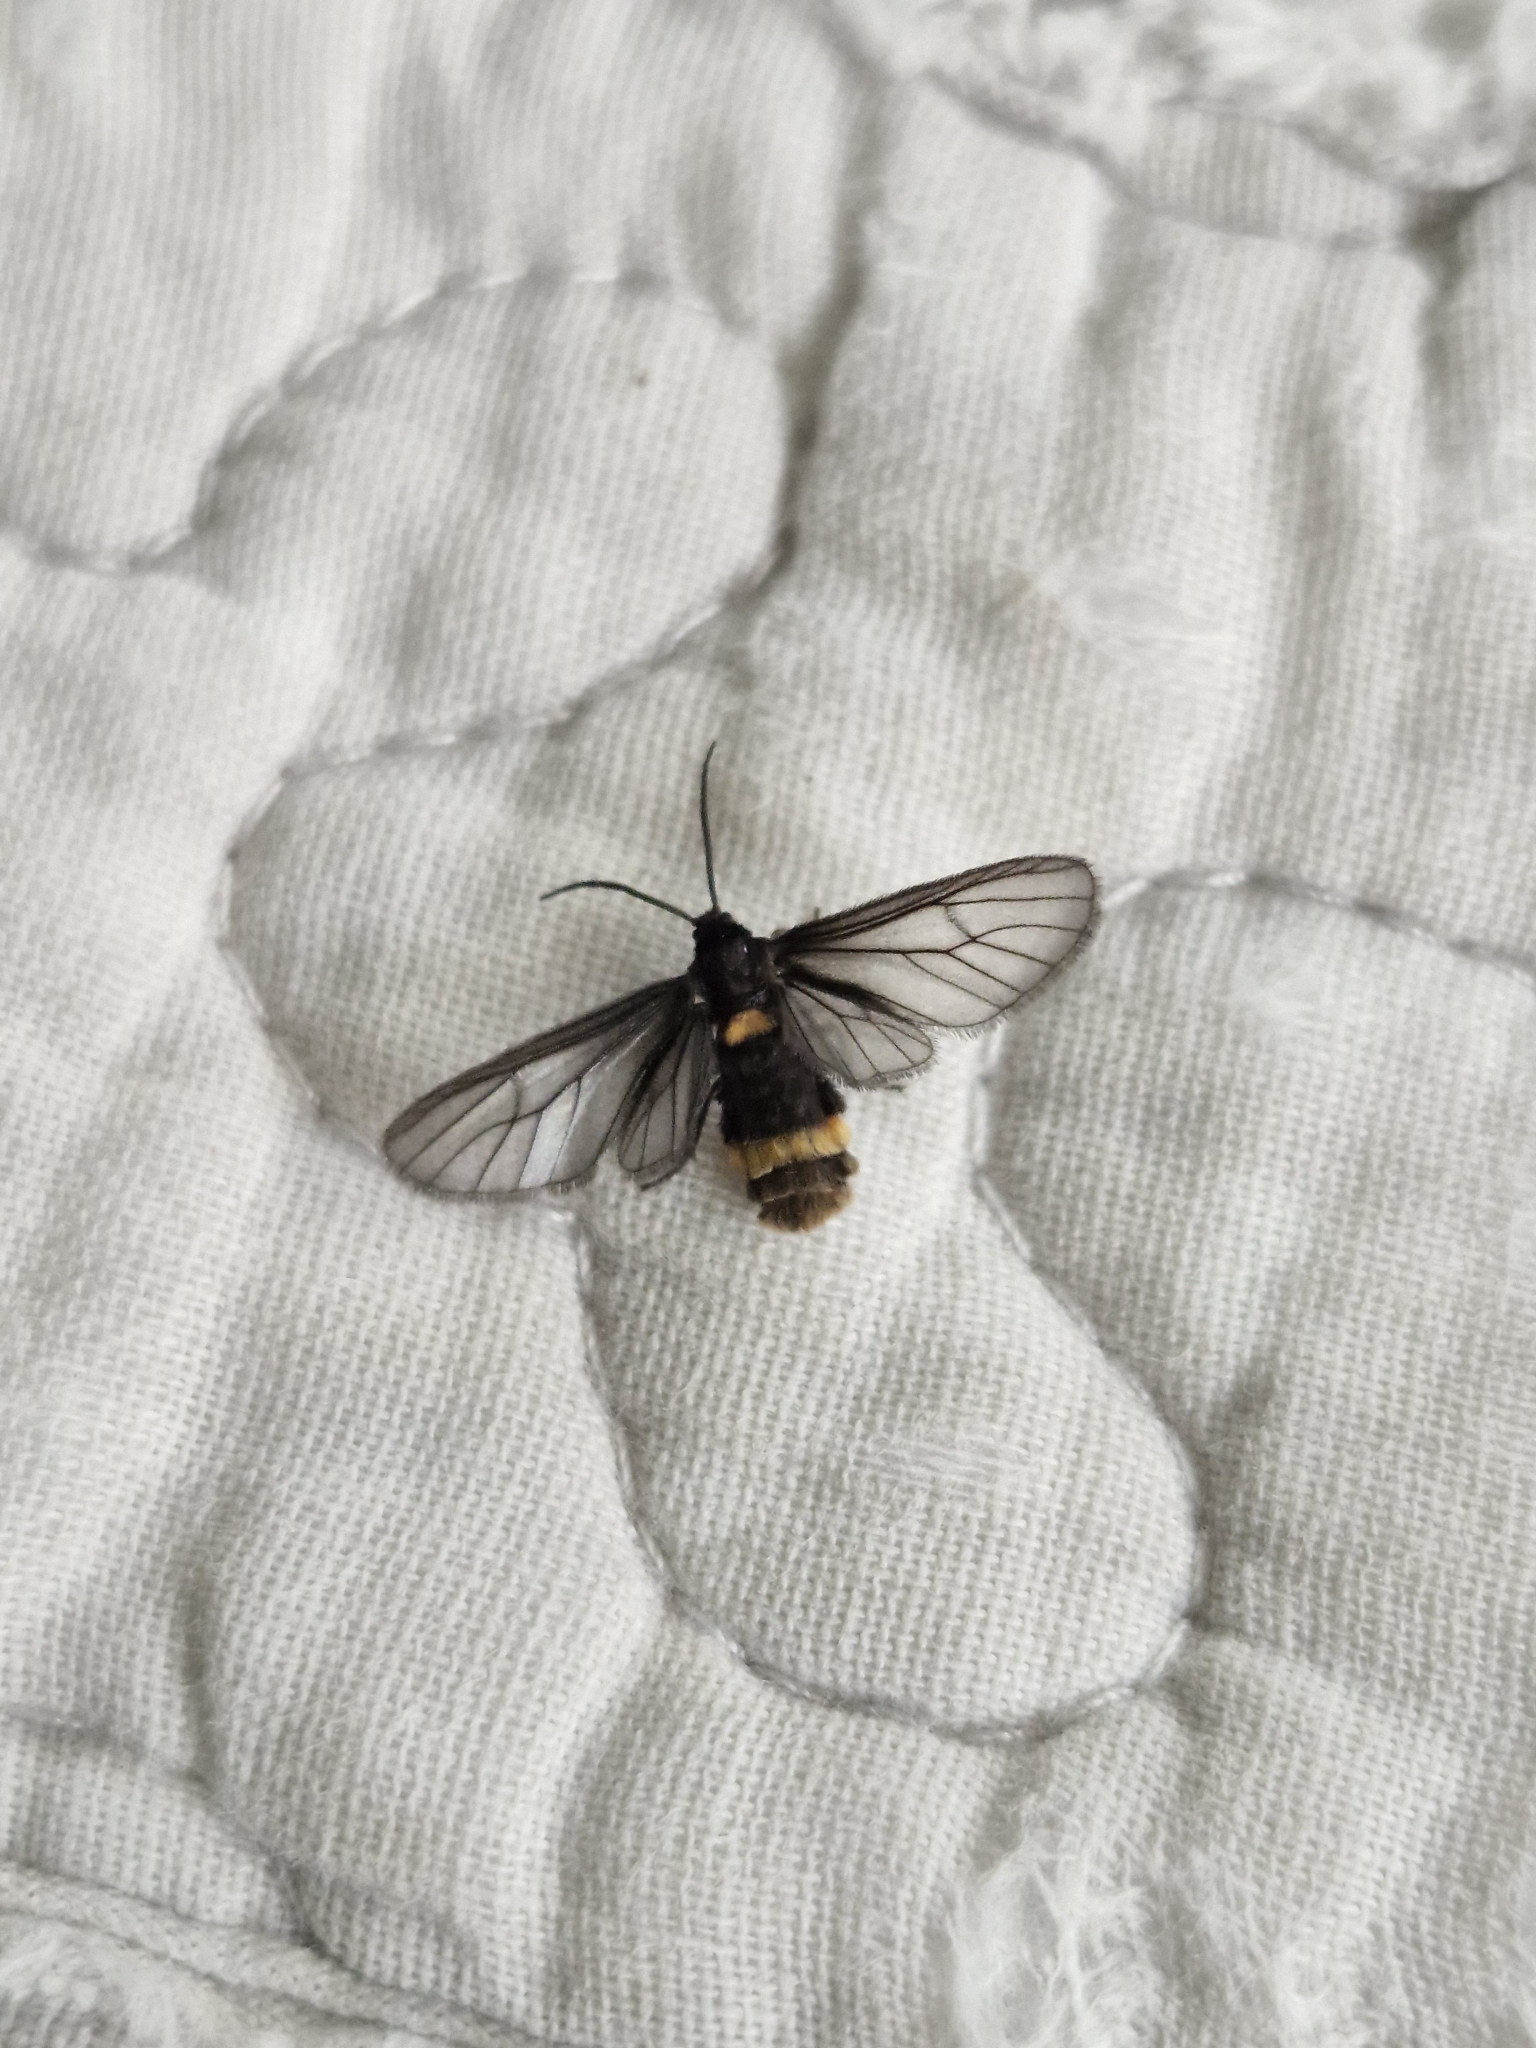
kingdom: Animalia
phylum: Arthropoda
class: Insecta
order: Lepidoptera
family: Erebidae
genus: Psichotoe
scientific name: Psichotoe duvauceli
